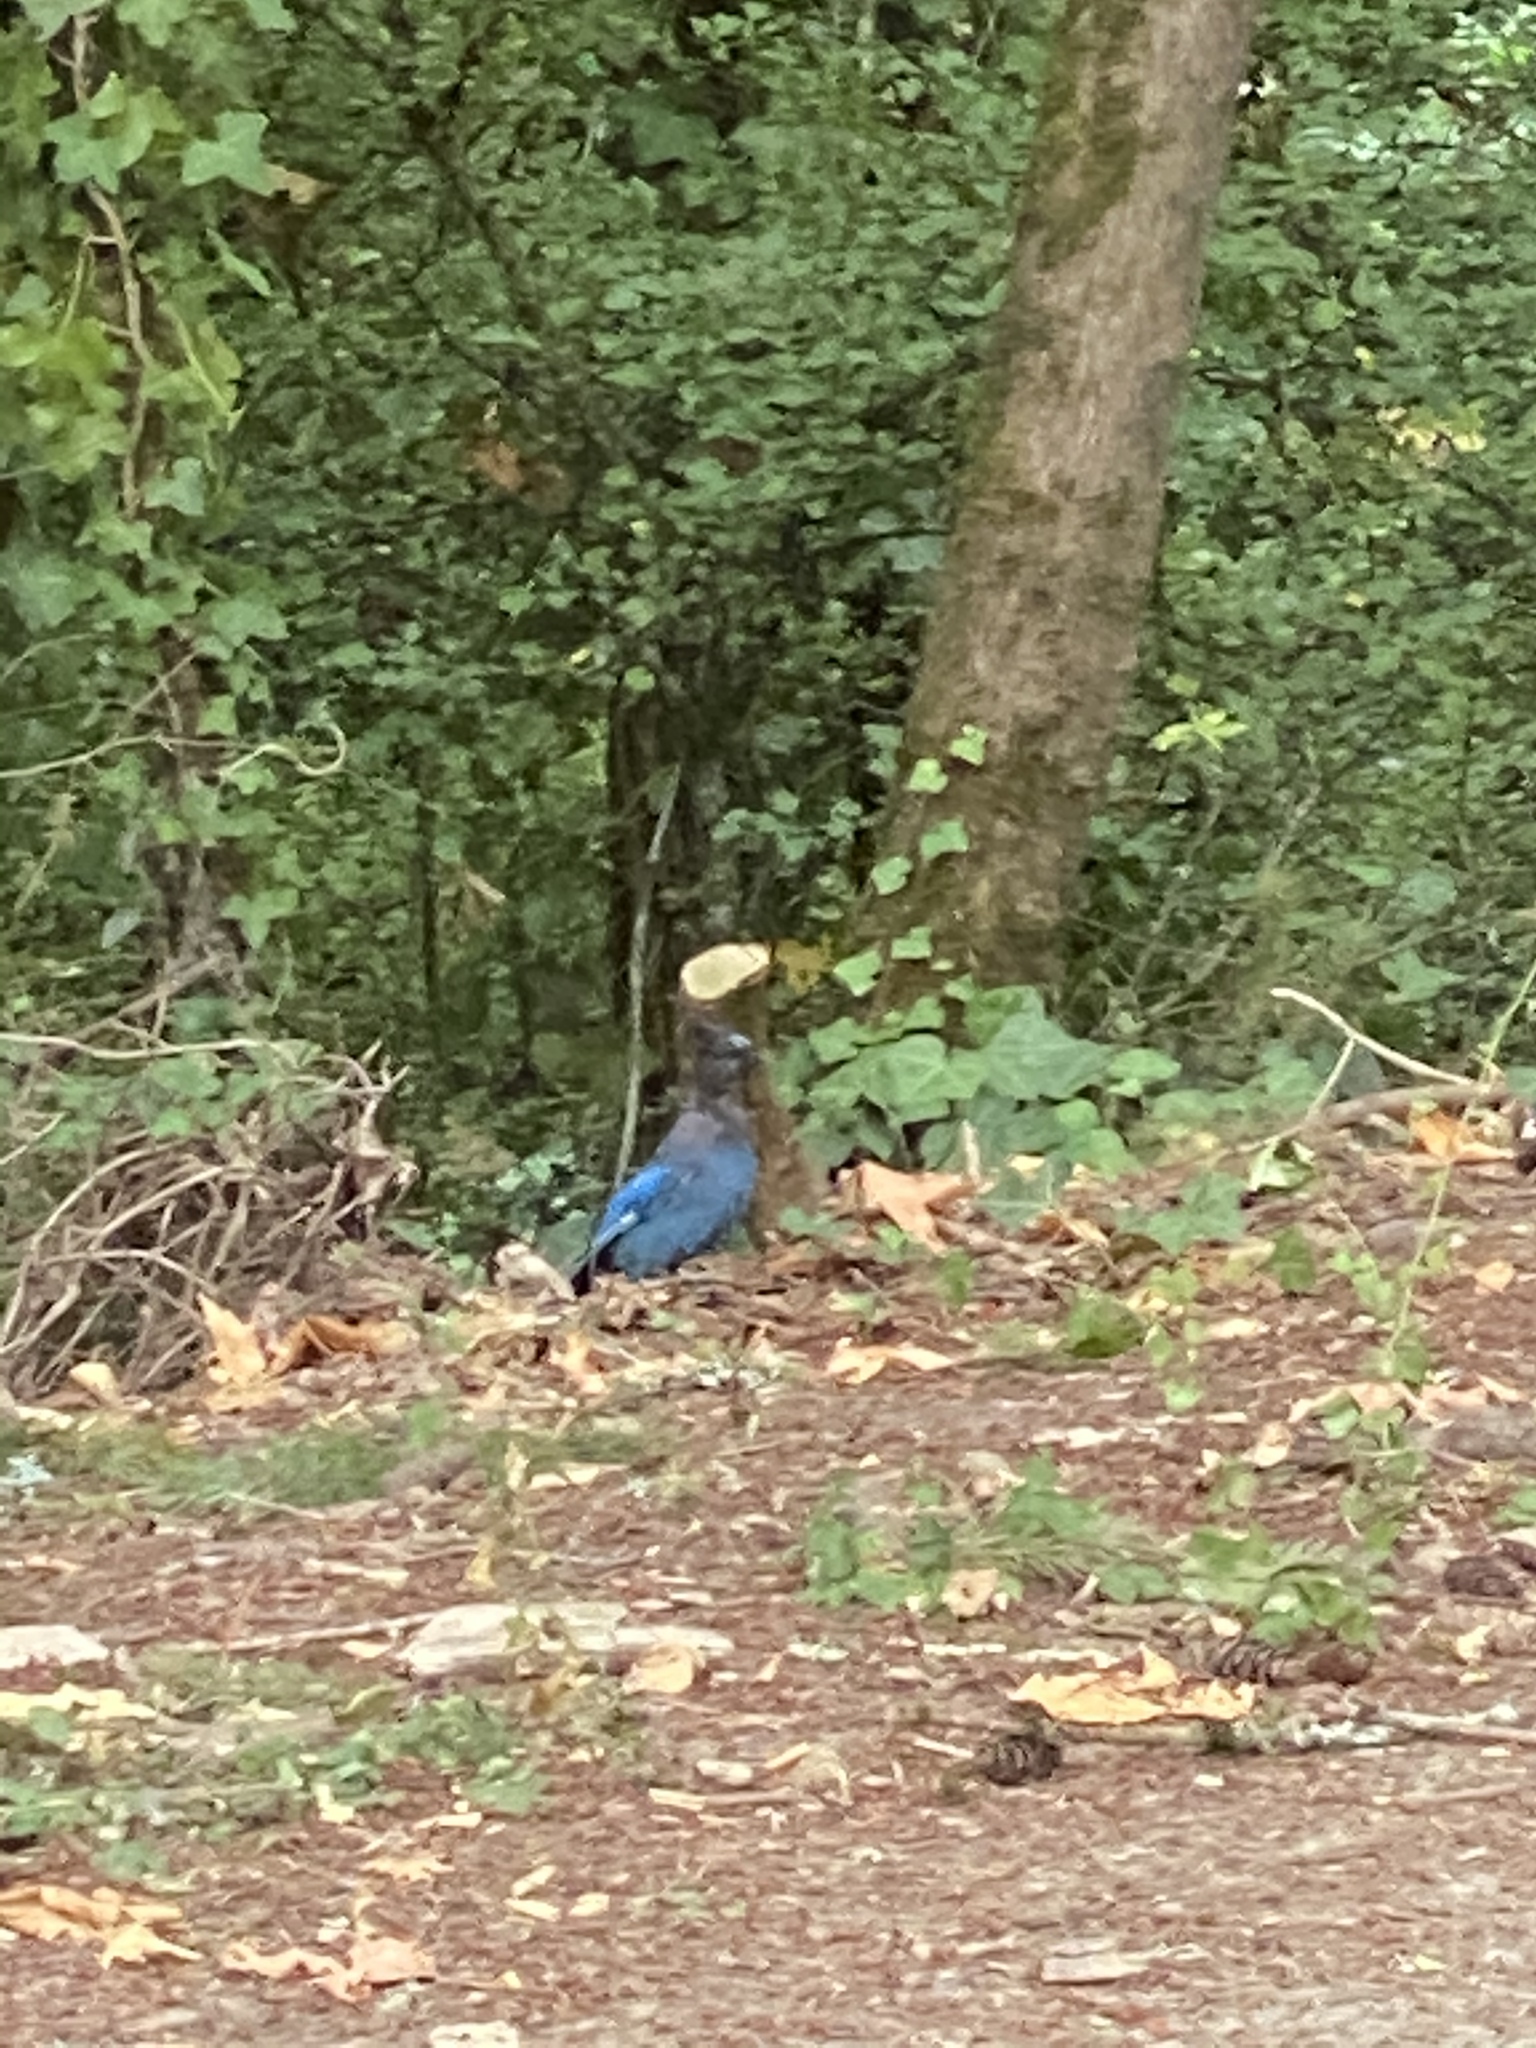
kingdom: Animalia
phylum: Chordata
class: Aves
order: Passeriformes
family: Corvidae
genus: Cyanocitta
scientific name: Cyanocitta stelleri
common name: Steller's jay
